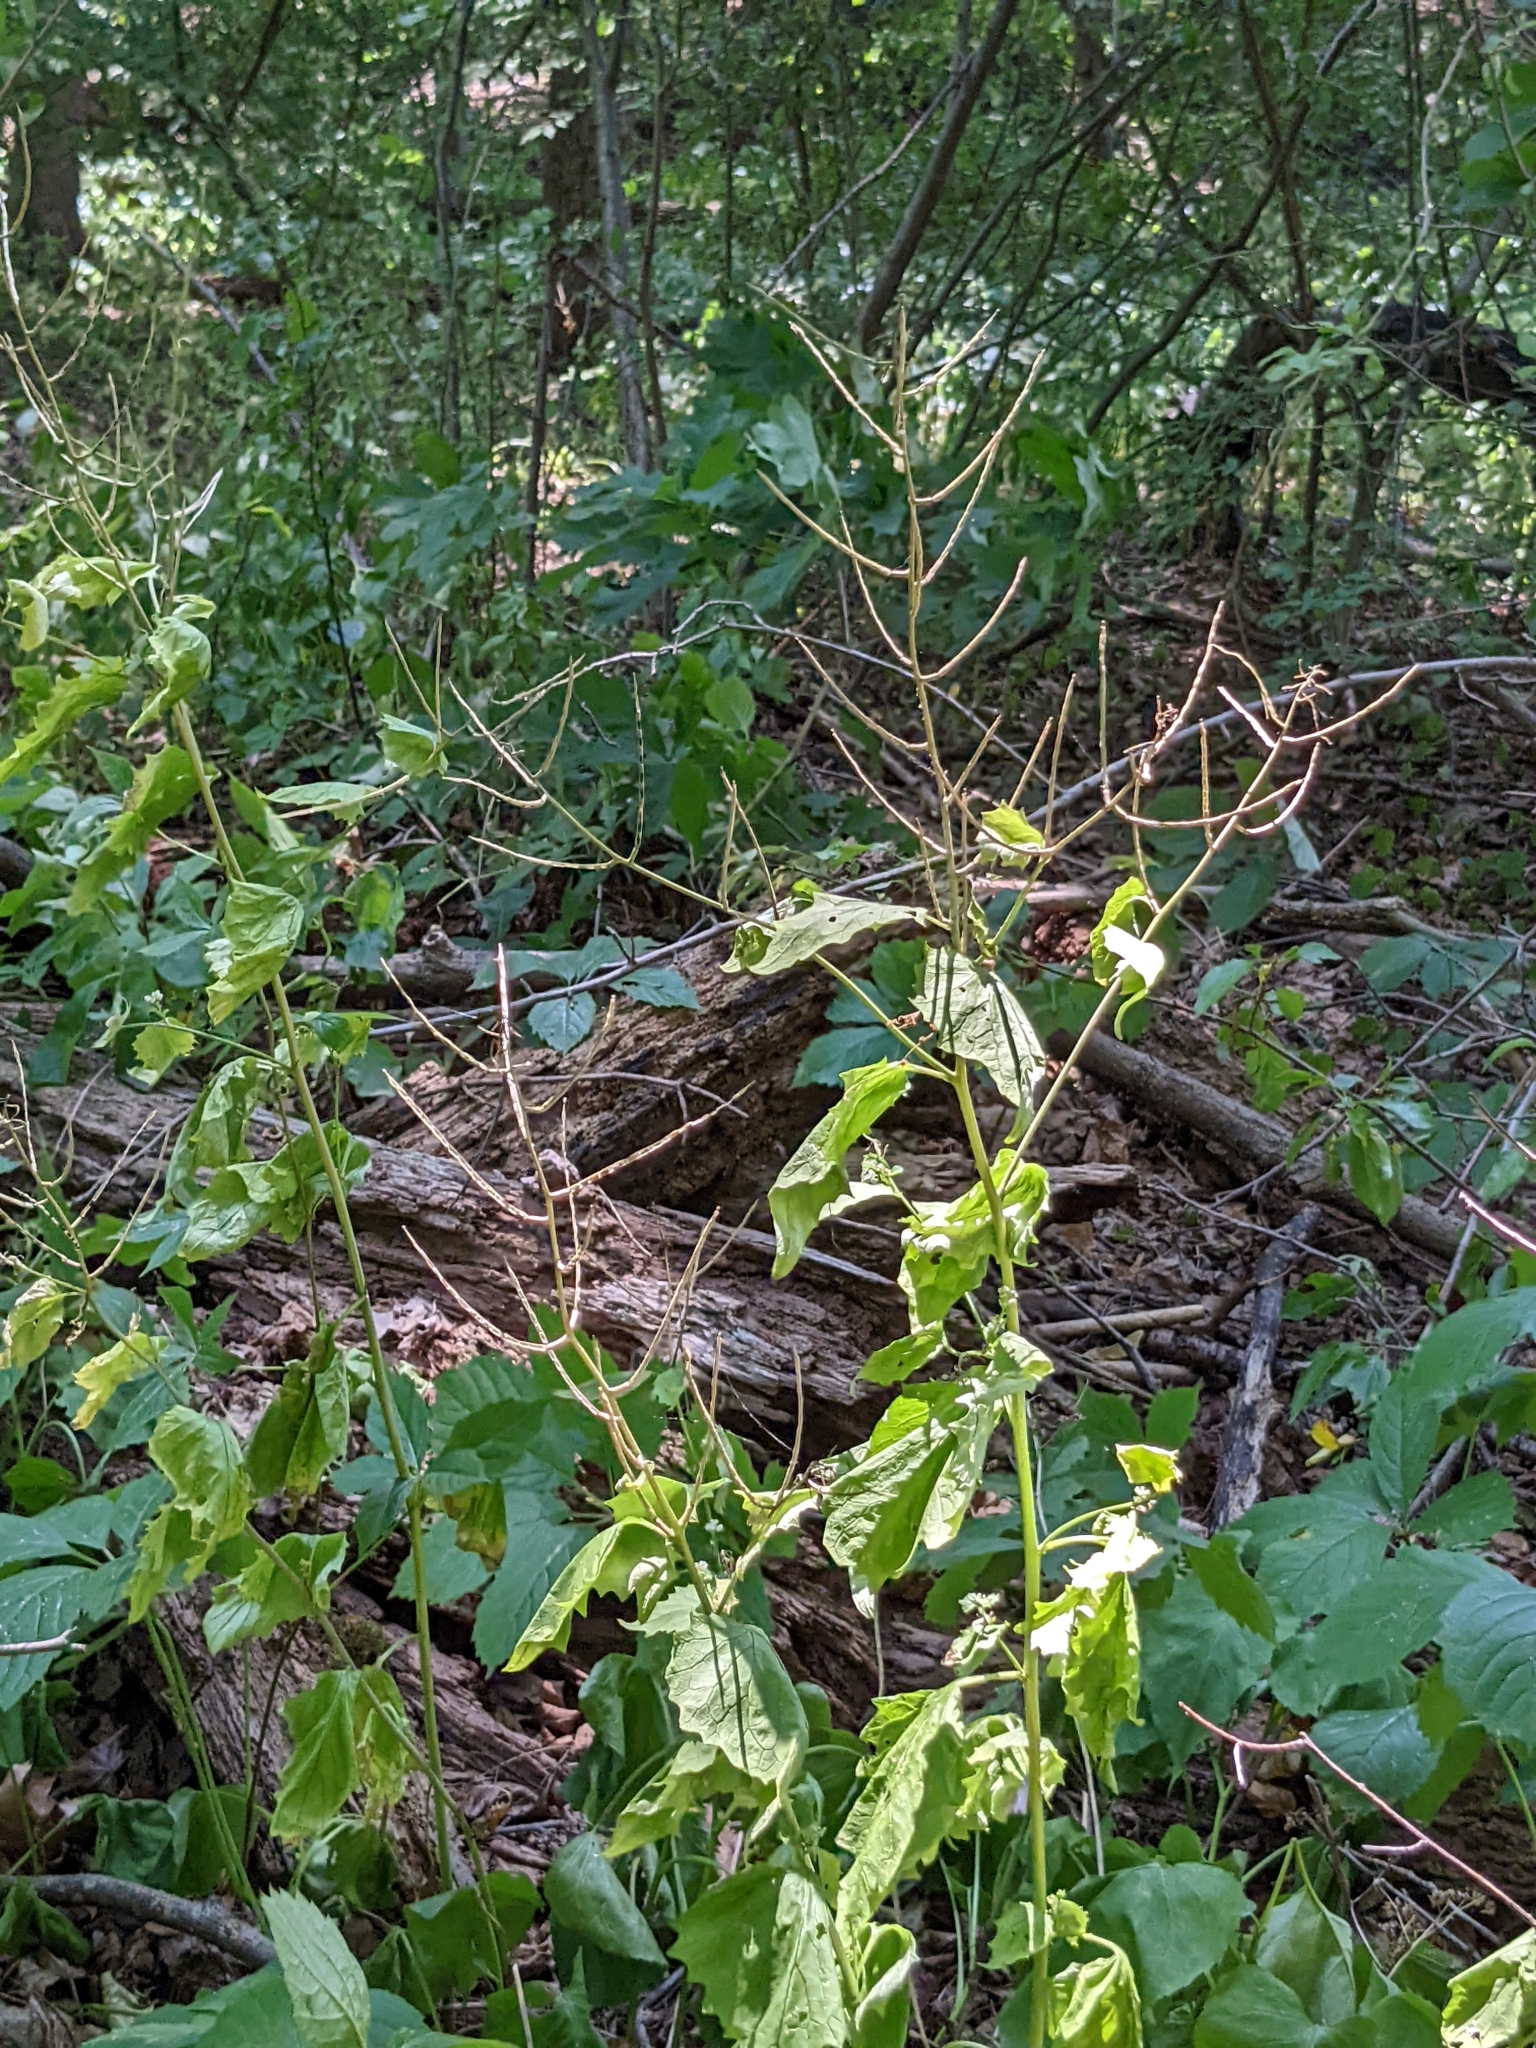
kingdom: Plantae
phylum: Tracheophyta
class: Magnoliopsida
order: Brassicales
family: Brassicaceae
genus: Alliaria
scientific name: Alliaria petiolata
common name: Garlic mustard
